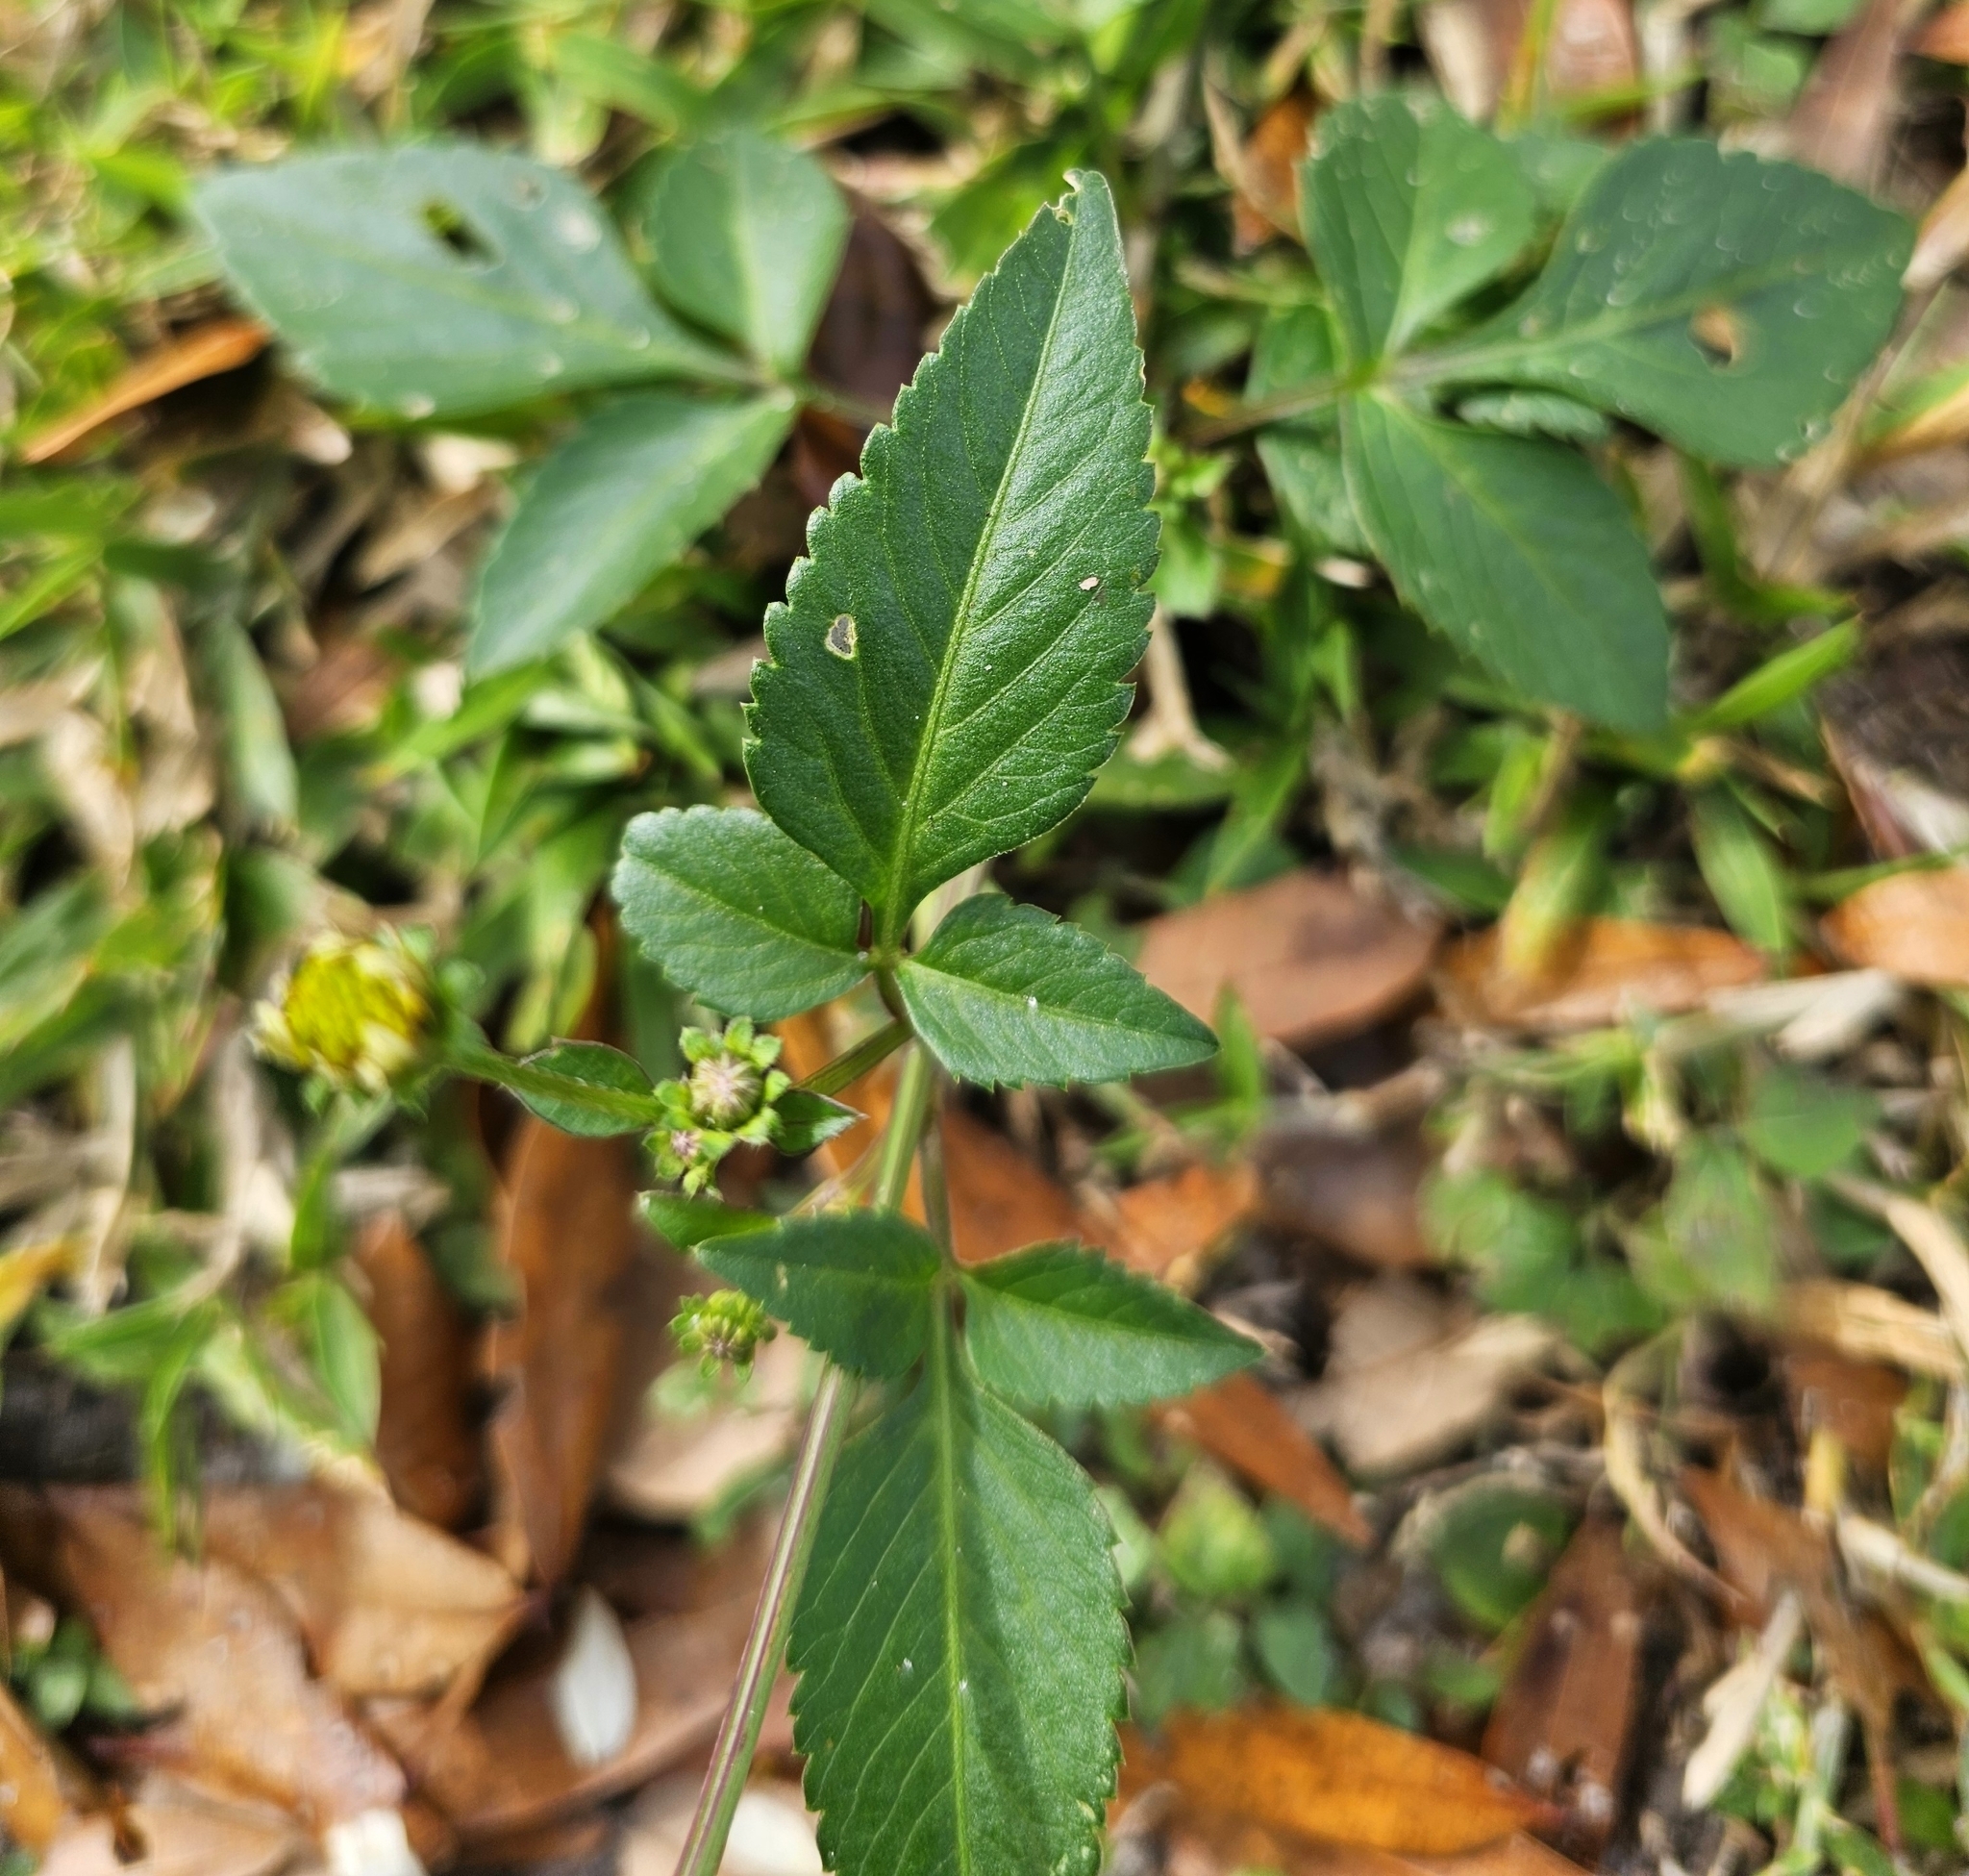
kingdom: Plantae
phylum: Tracheophyta
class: Magnoliopsida
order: Asterales
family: Asteraceae
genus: Bidens
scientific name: Bidens alba
